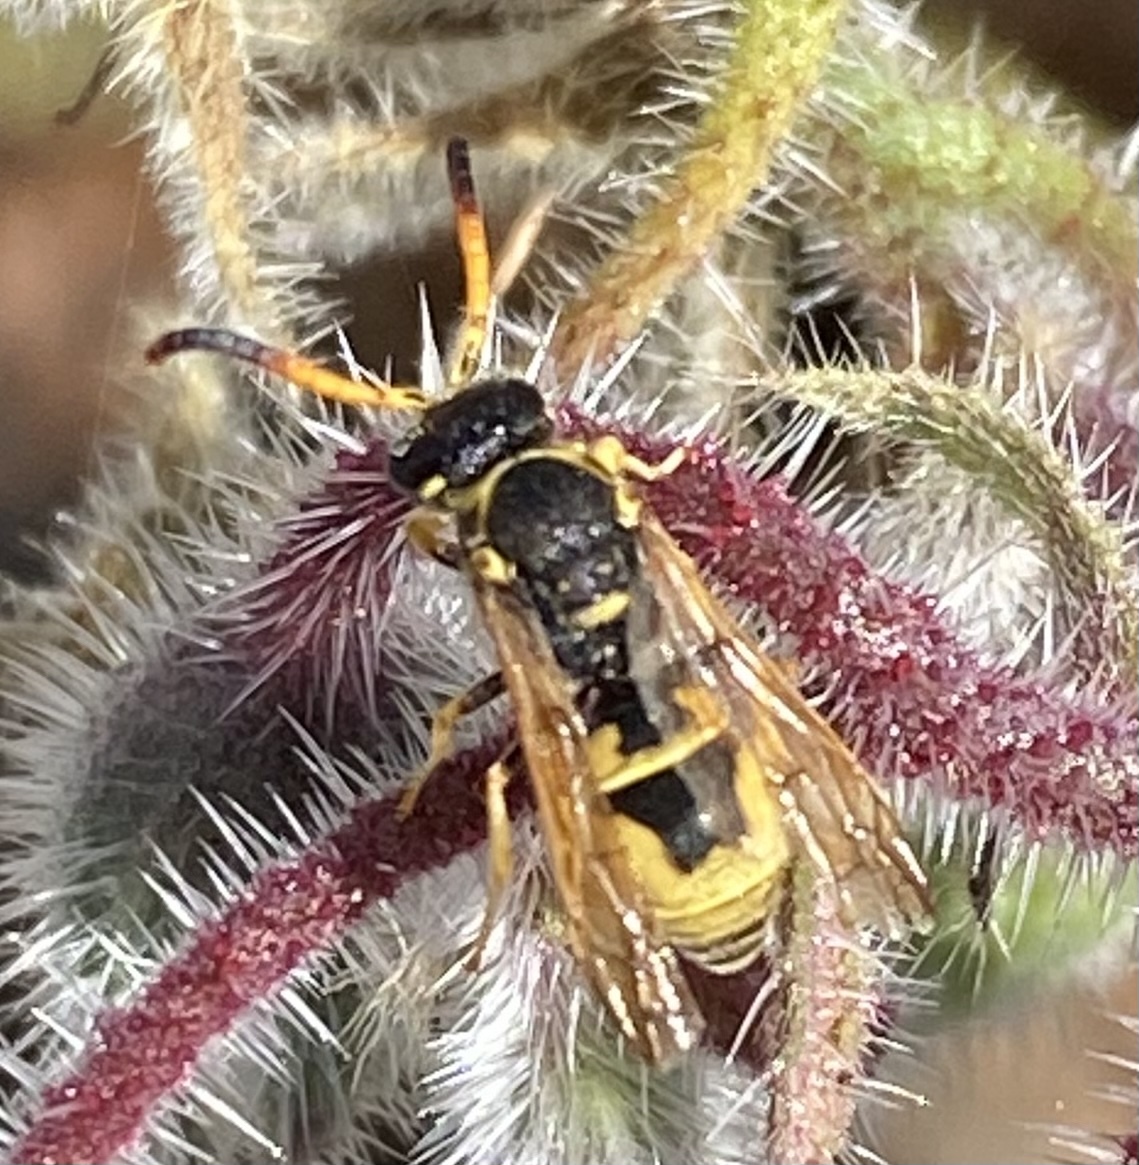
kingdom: Animalia
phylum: Arthropoda
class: Insecta
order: Hymenoptera
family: Vespidae
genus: Ancistrocerus
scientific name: Ancistrocerus tuberculocephalus
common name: Vespid wasp
